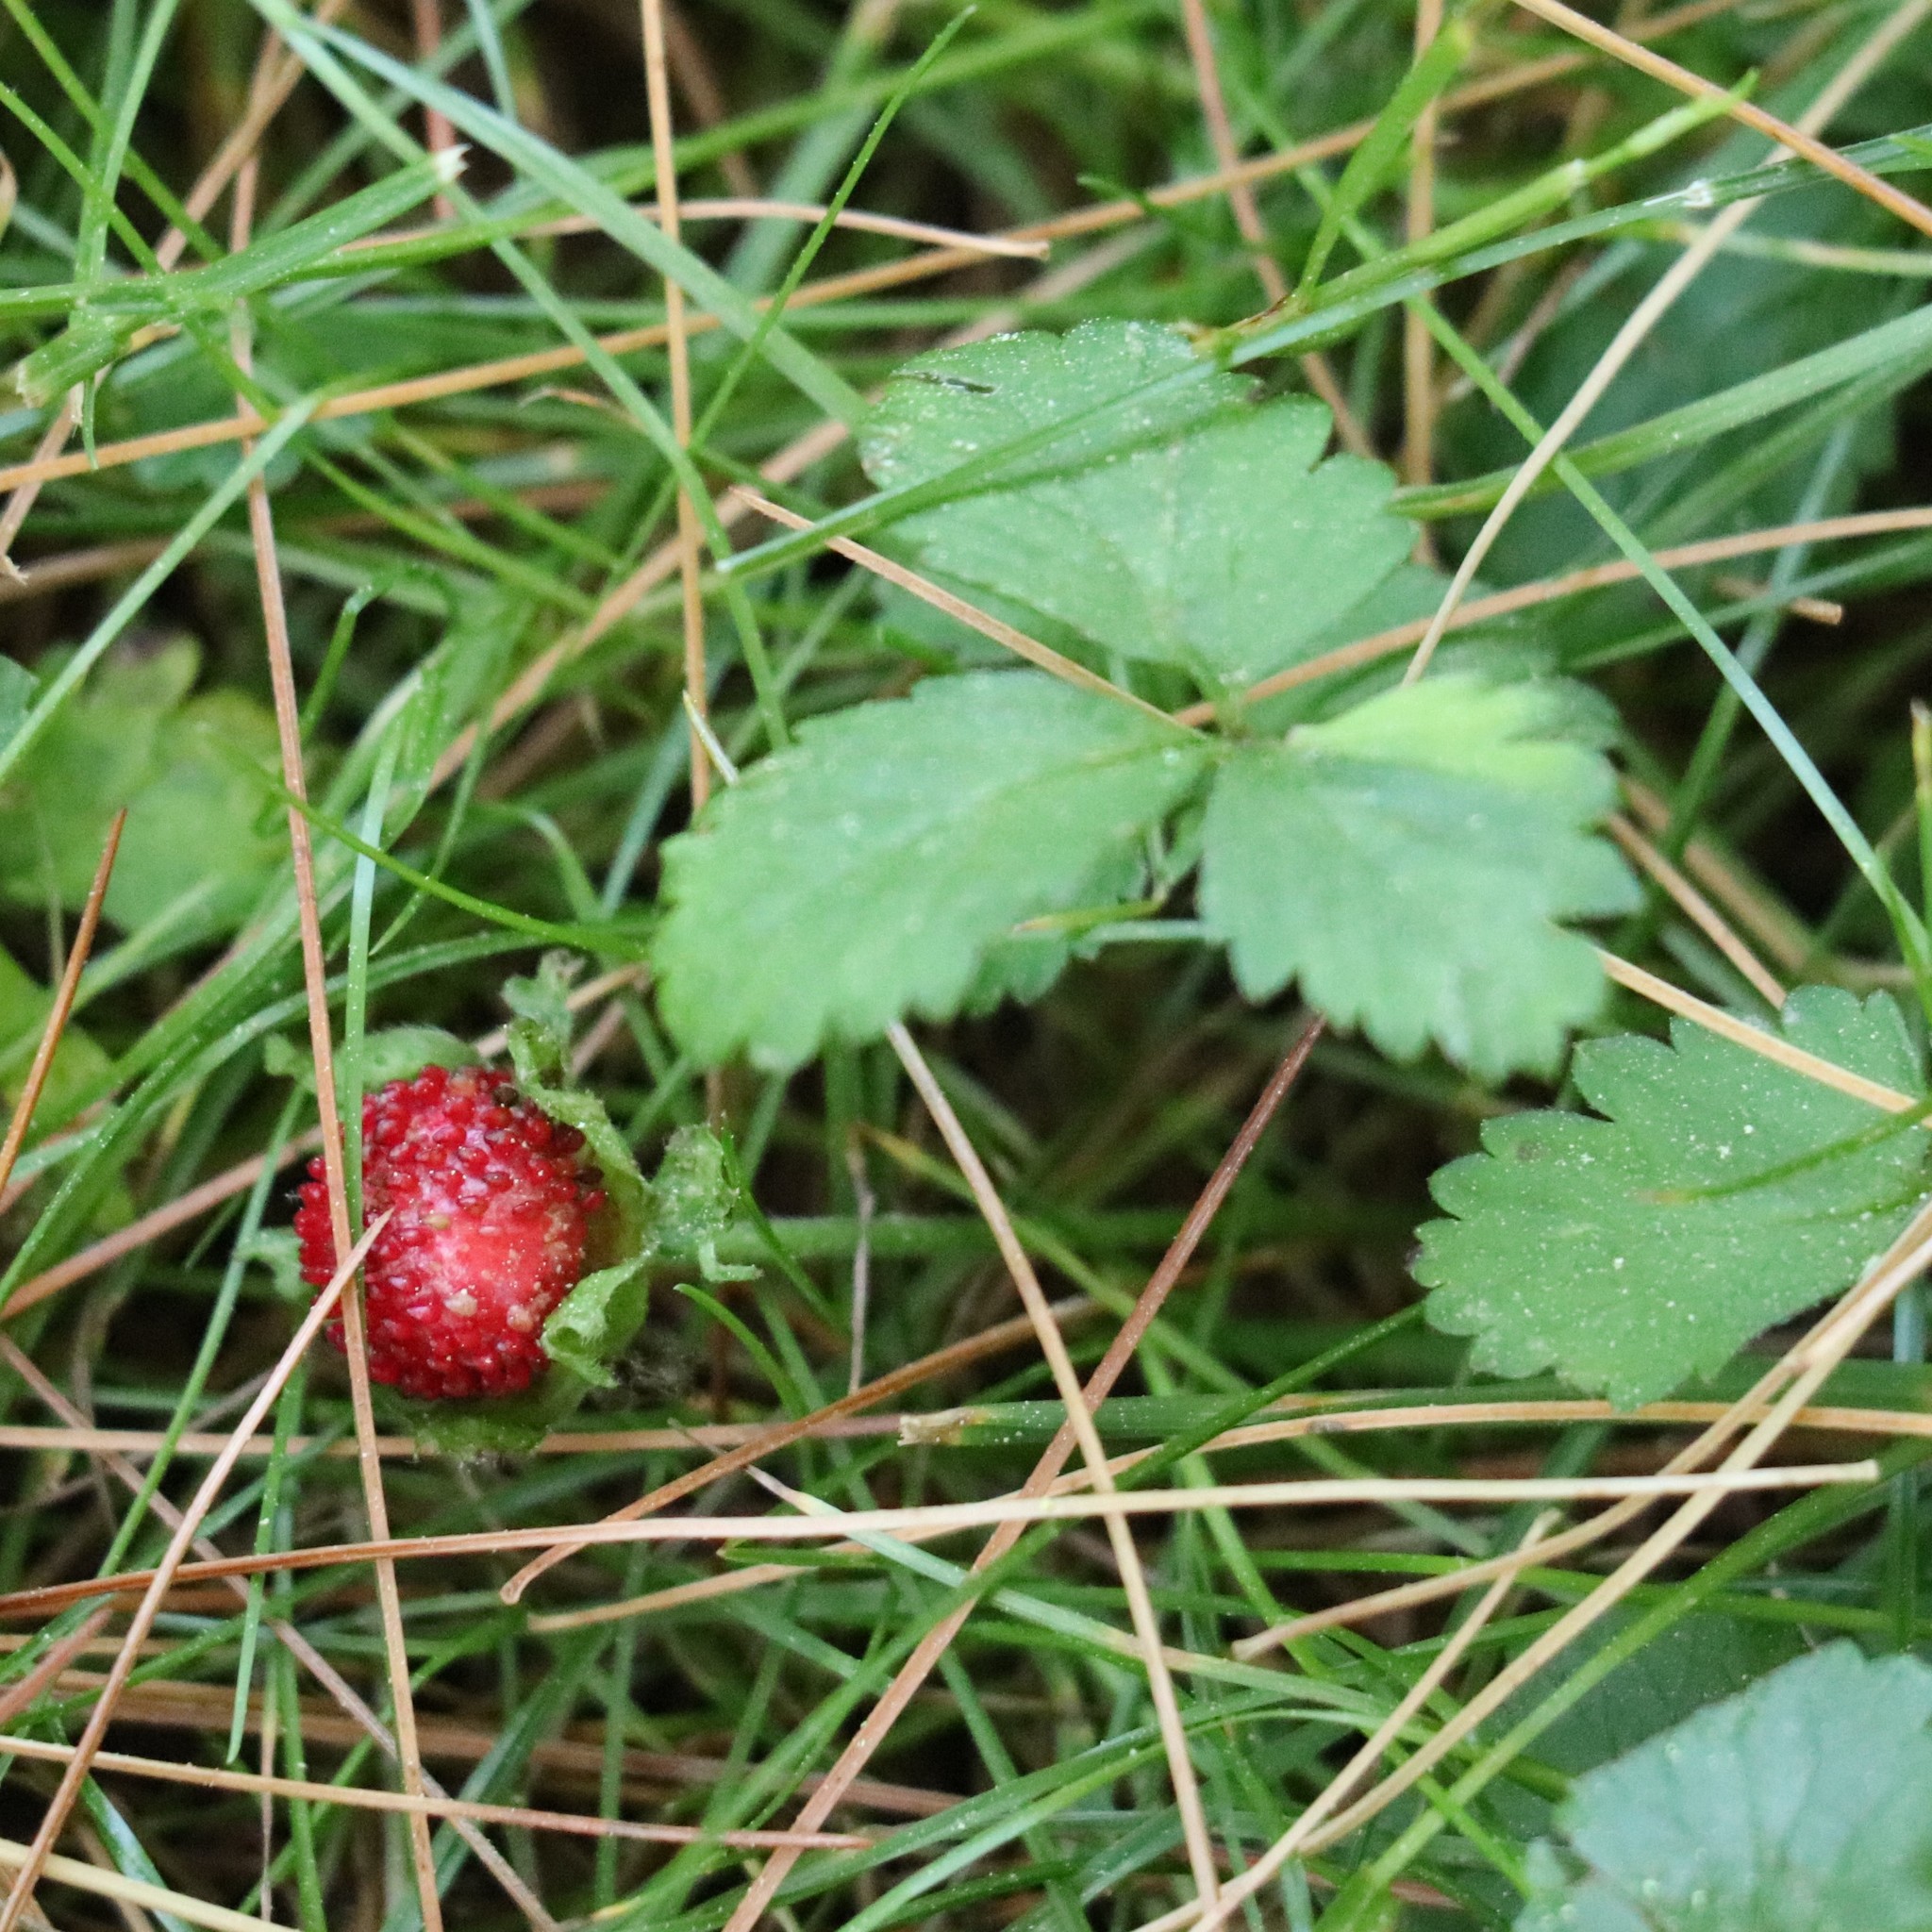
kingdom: Plantae
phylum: Tracheophyta
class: Magnoliopsida
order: Rosales
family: Rosaceae
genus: Potentilla
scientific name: Potentilla indica
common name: Yellow-flowered strawberry
